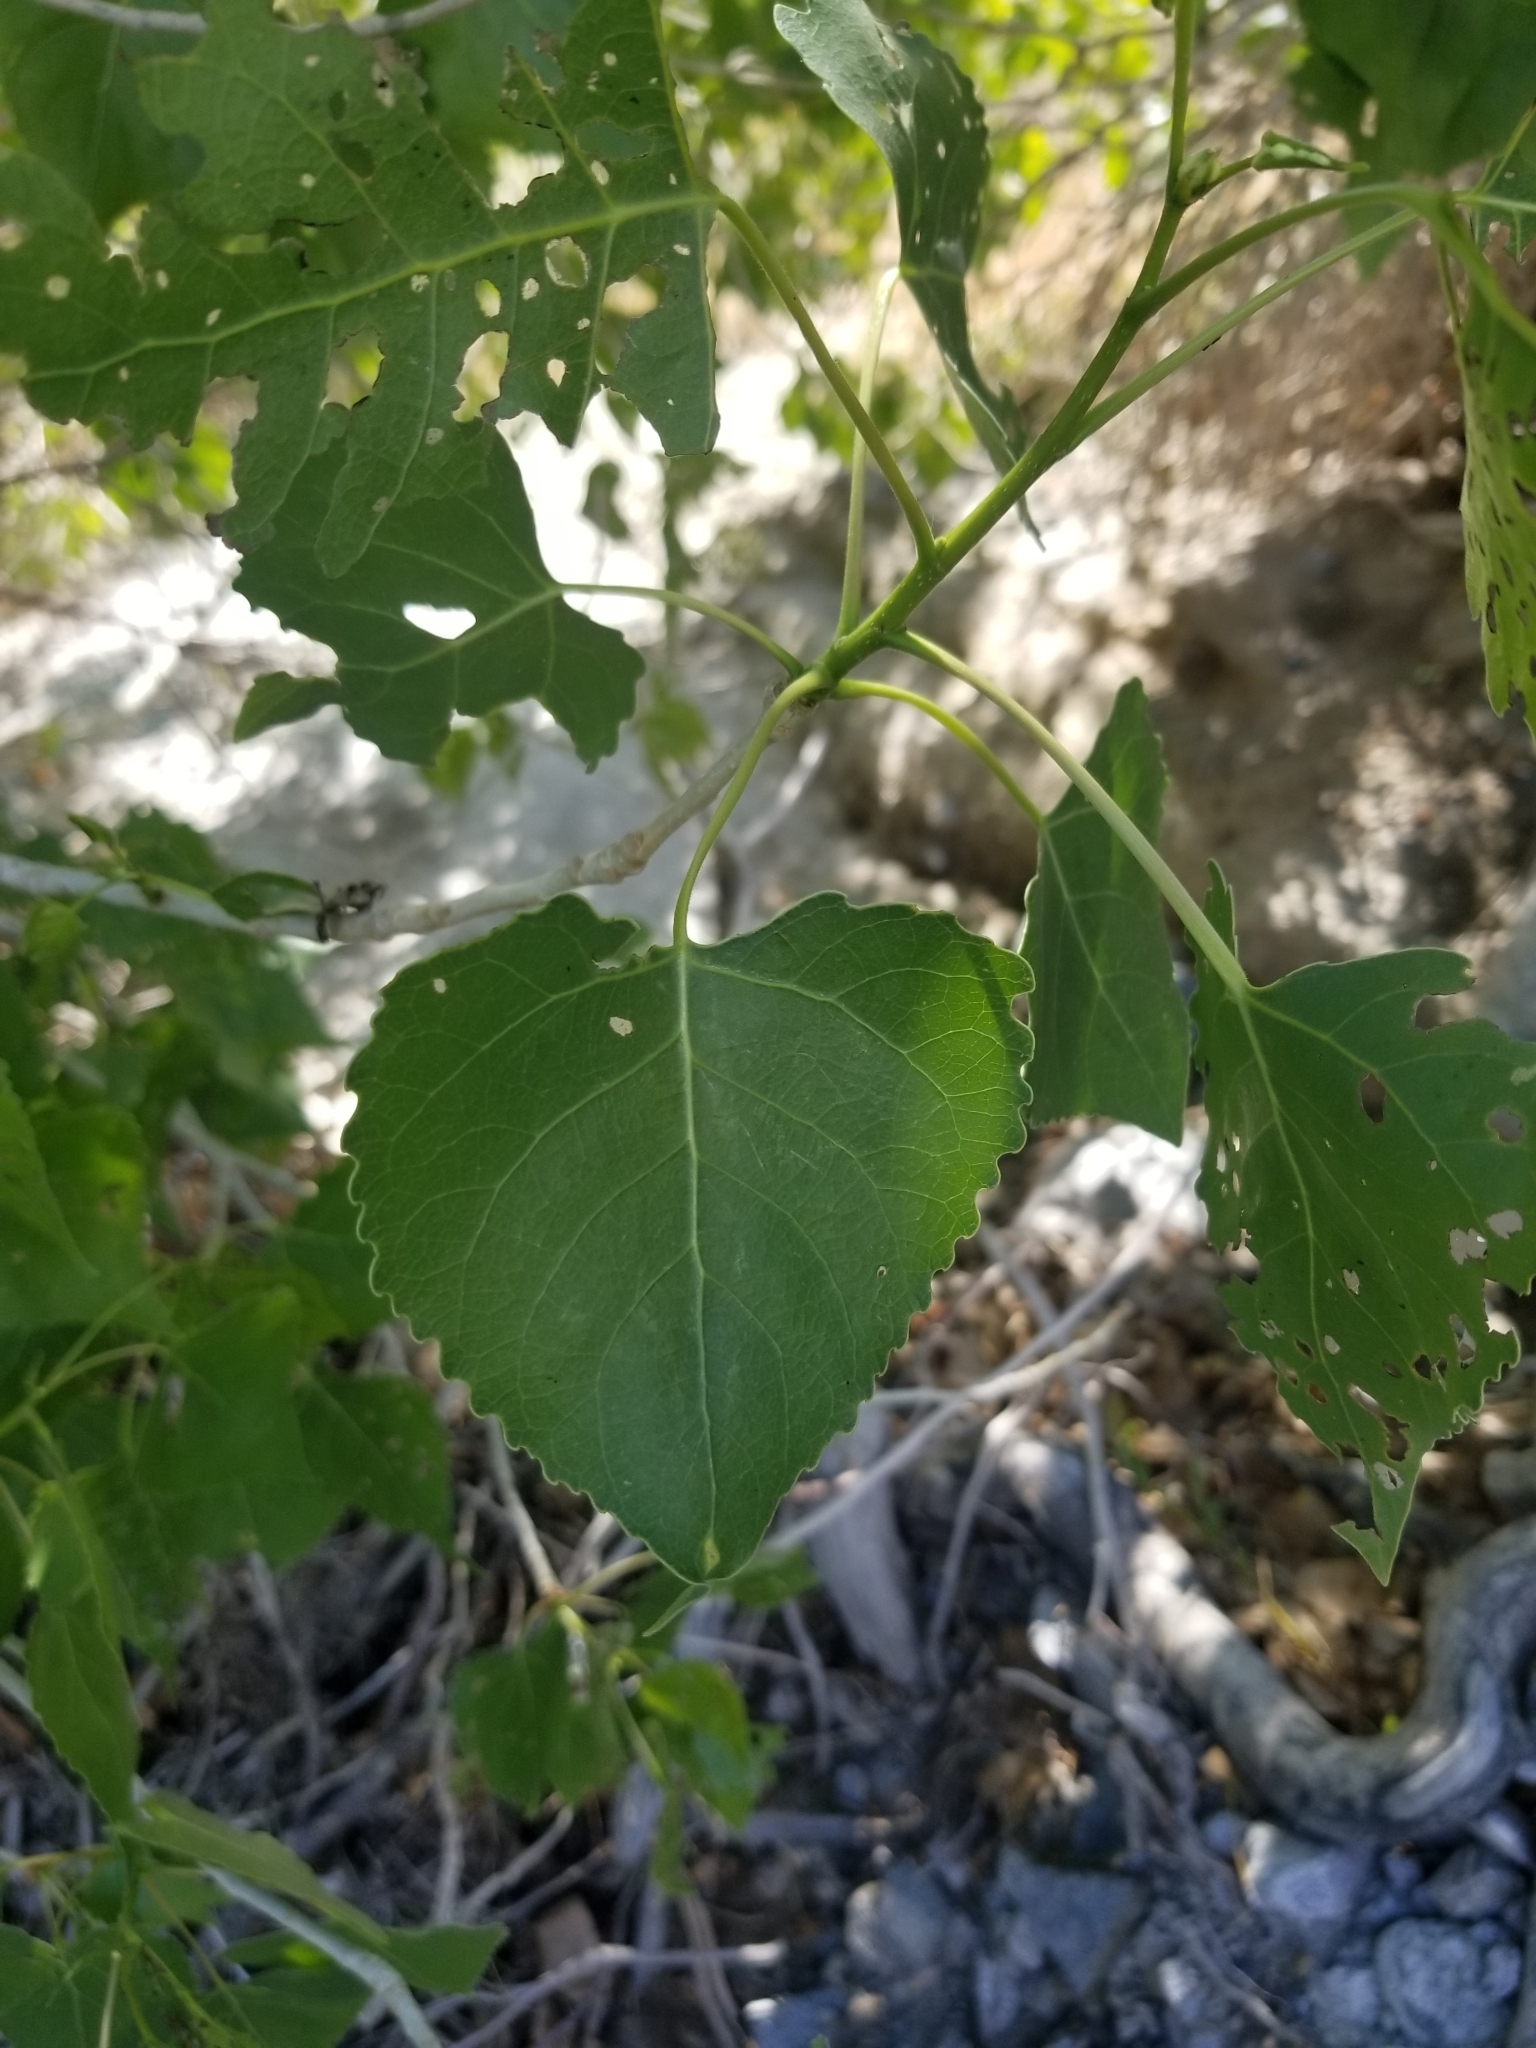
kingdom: Plantae
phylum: Tracheophyta
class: Magnoliopsida
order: Malpighiales
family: Salicaceae
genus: Populus
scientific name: Populus fremontii
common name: Fremont's cottonwood
